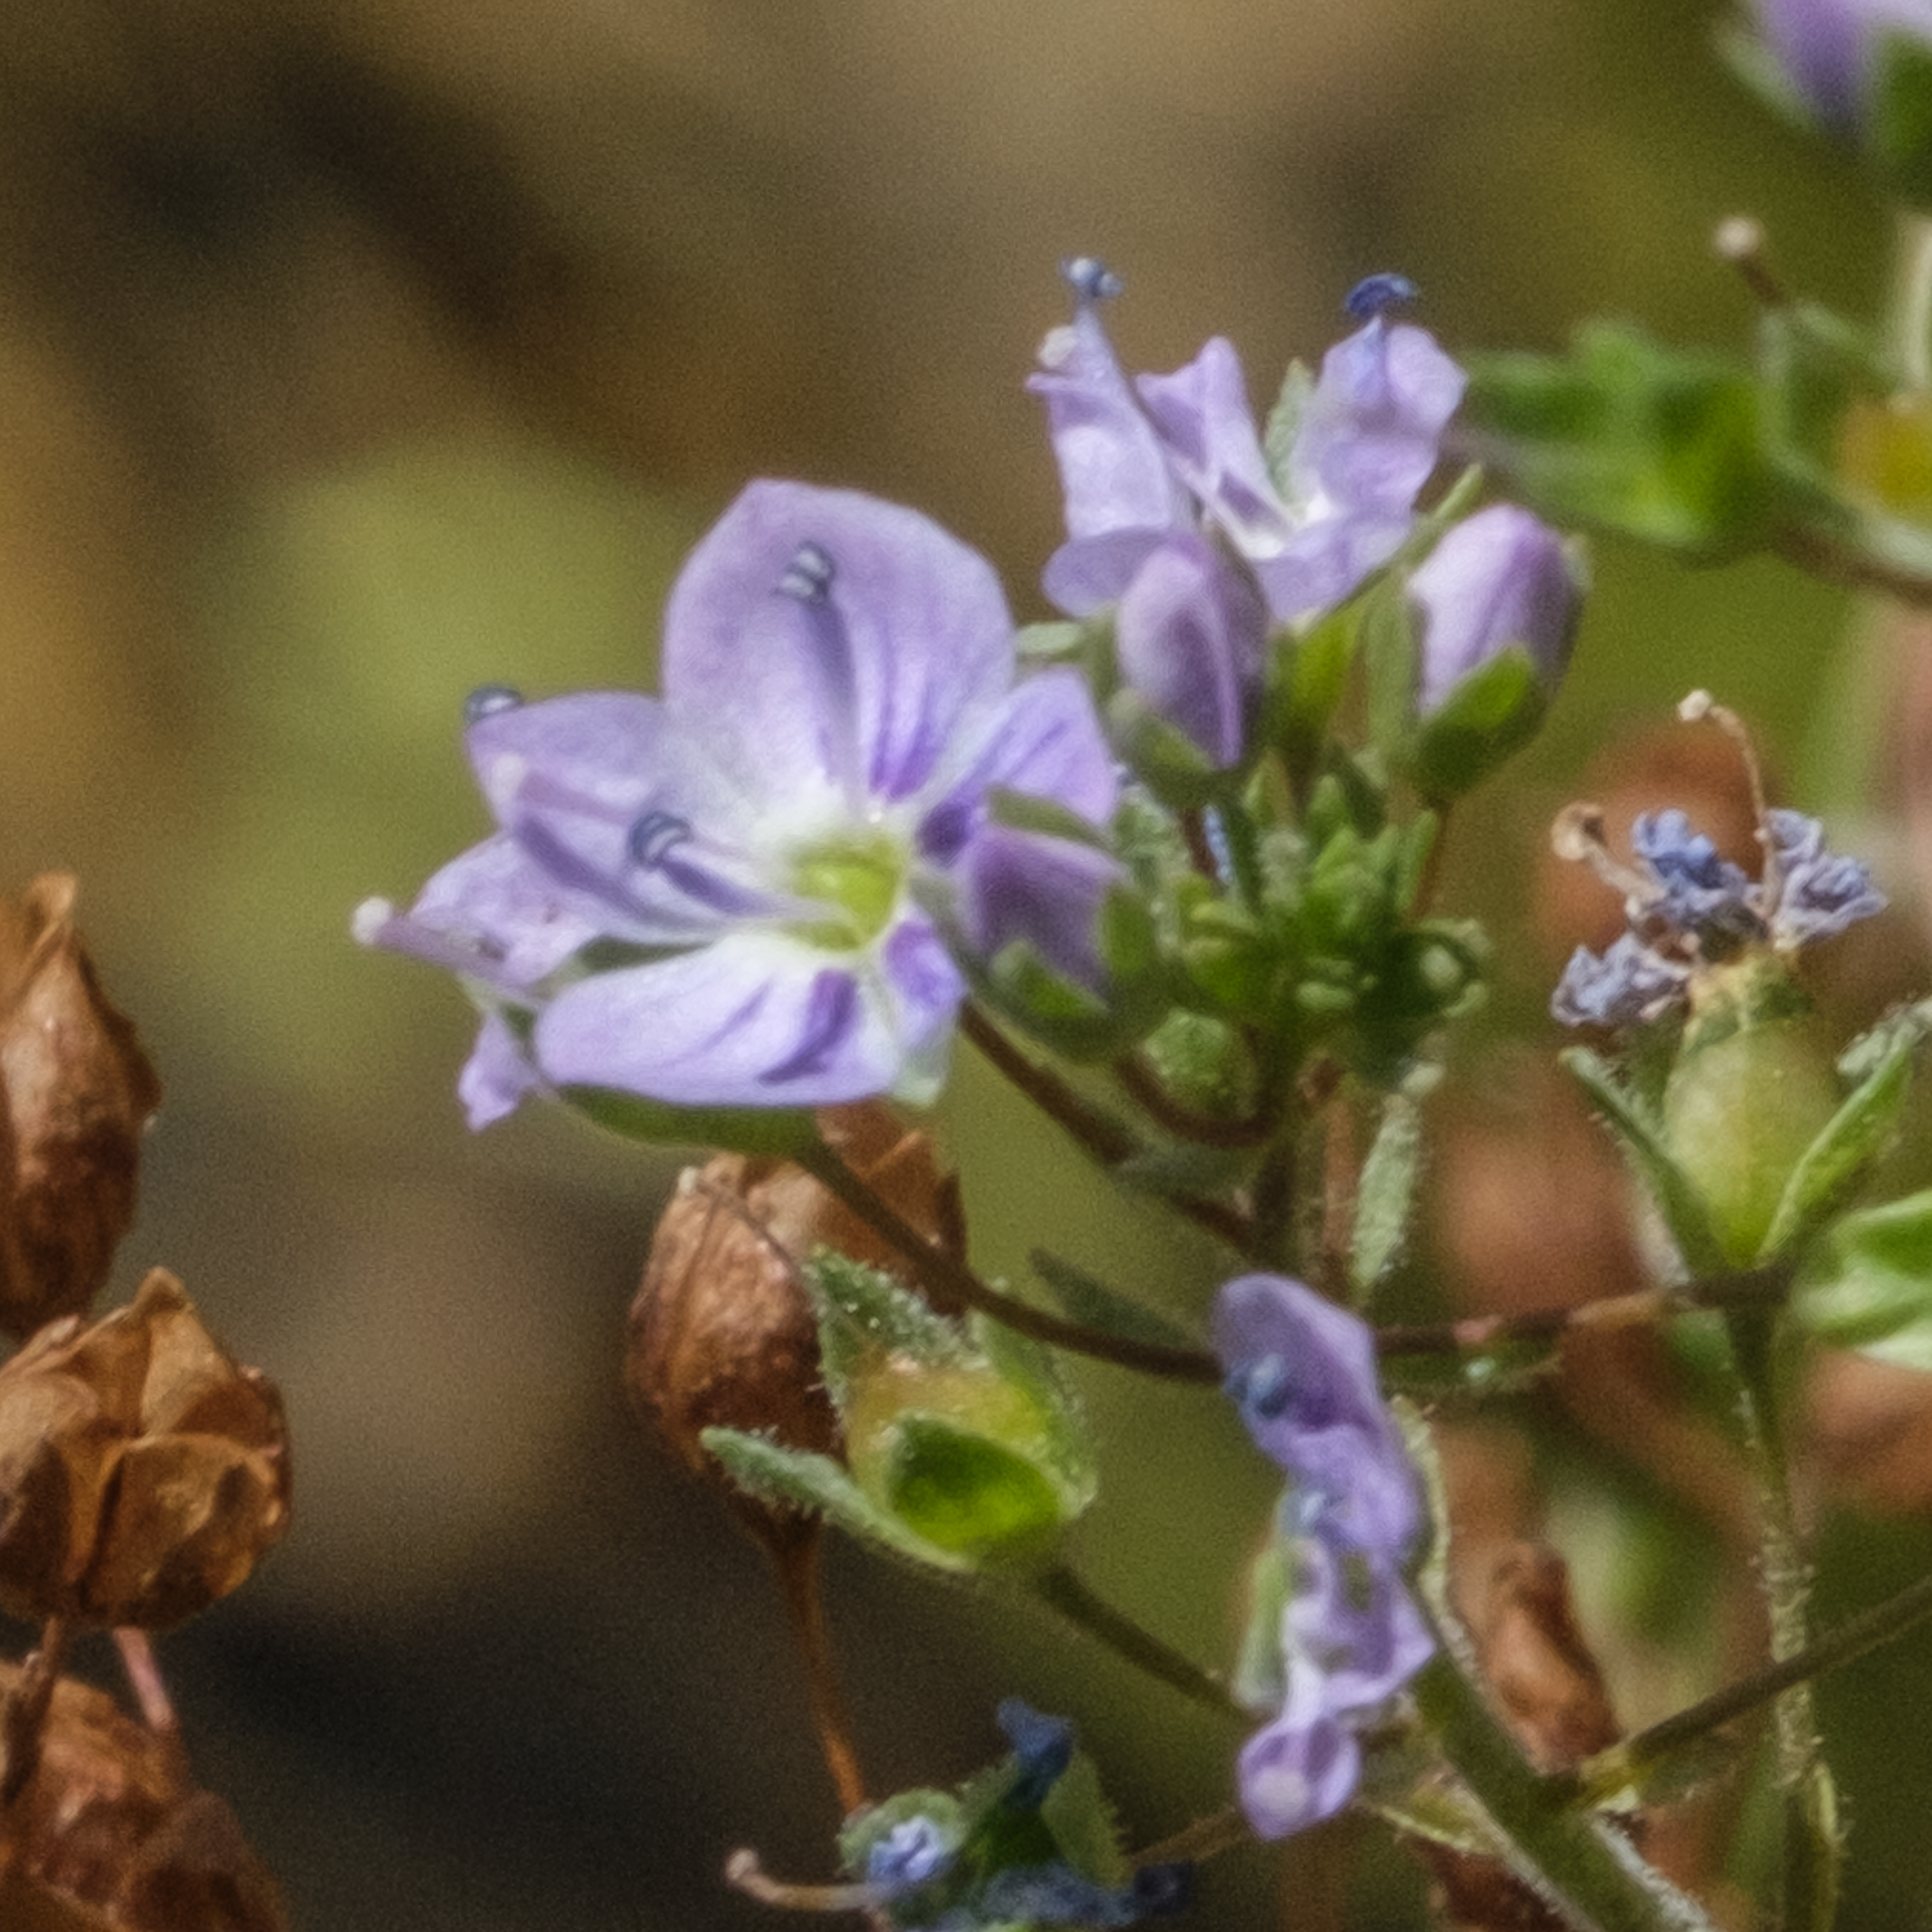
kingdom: Plantae
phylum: Tracheophyta
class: Magnoliopsida
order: Lamiales
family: Plantaginaceae
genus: Veronica
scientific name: Veronica anagallis-aquatica
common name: Water speedwell
